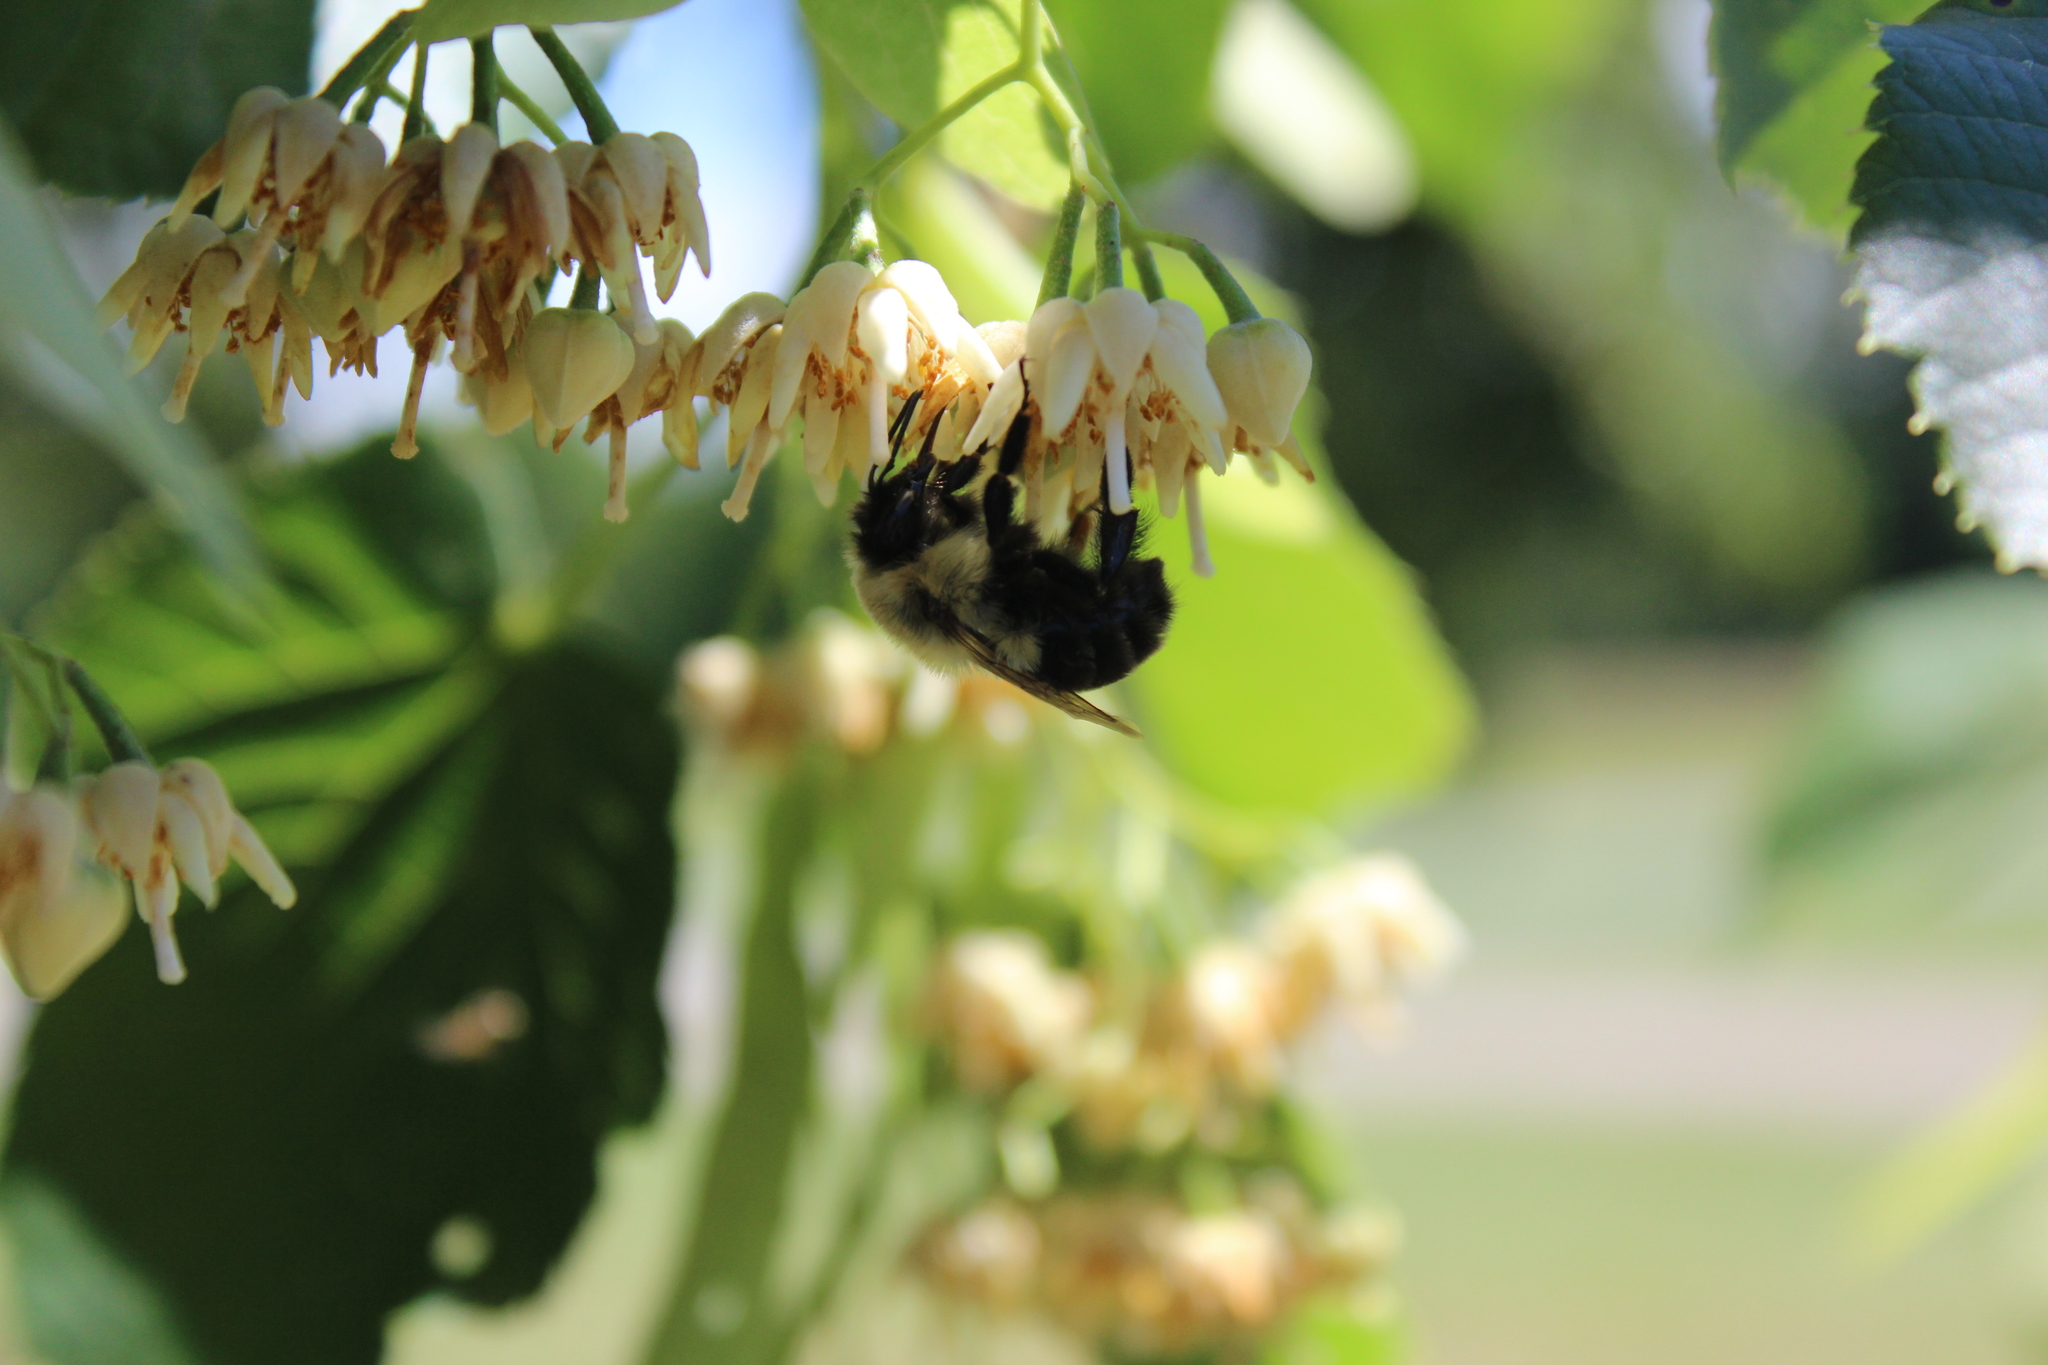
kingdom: Animalia
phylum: Arthropoda
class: Insecta
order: Hymenoptera
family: Apidae
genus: Bombus
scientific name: Bombus impatiens
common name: Common eastern bumble bee
